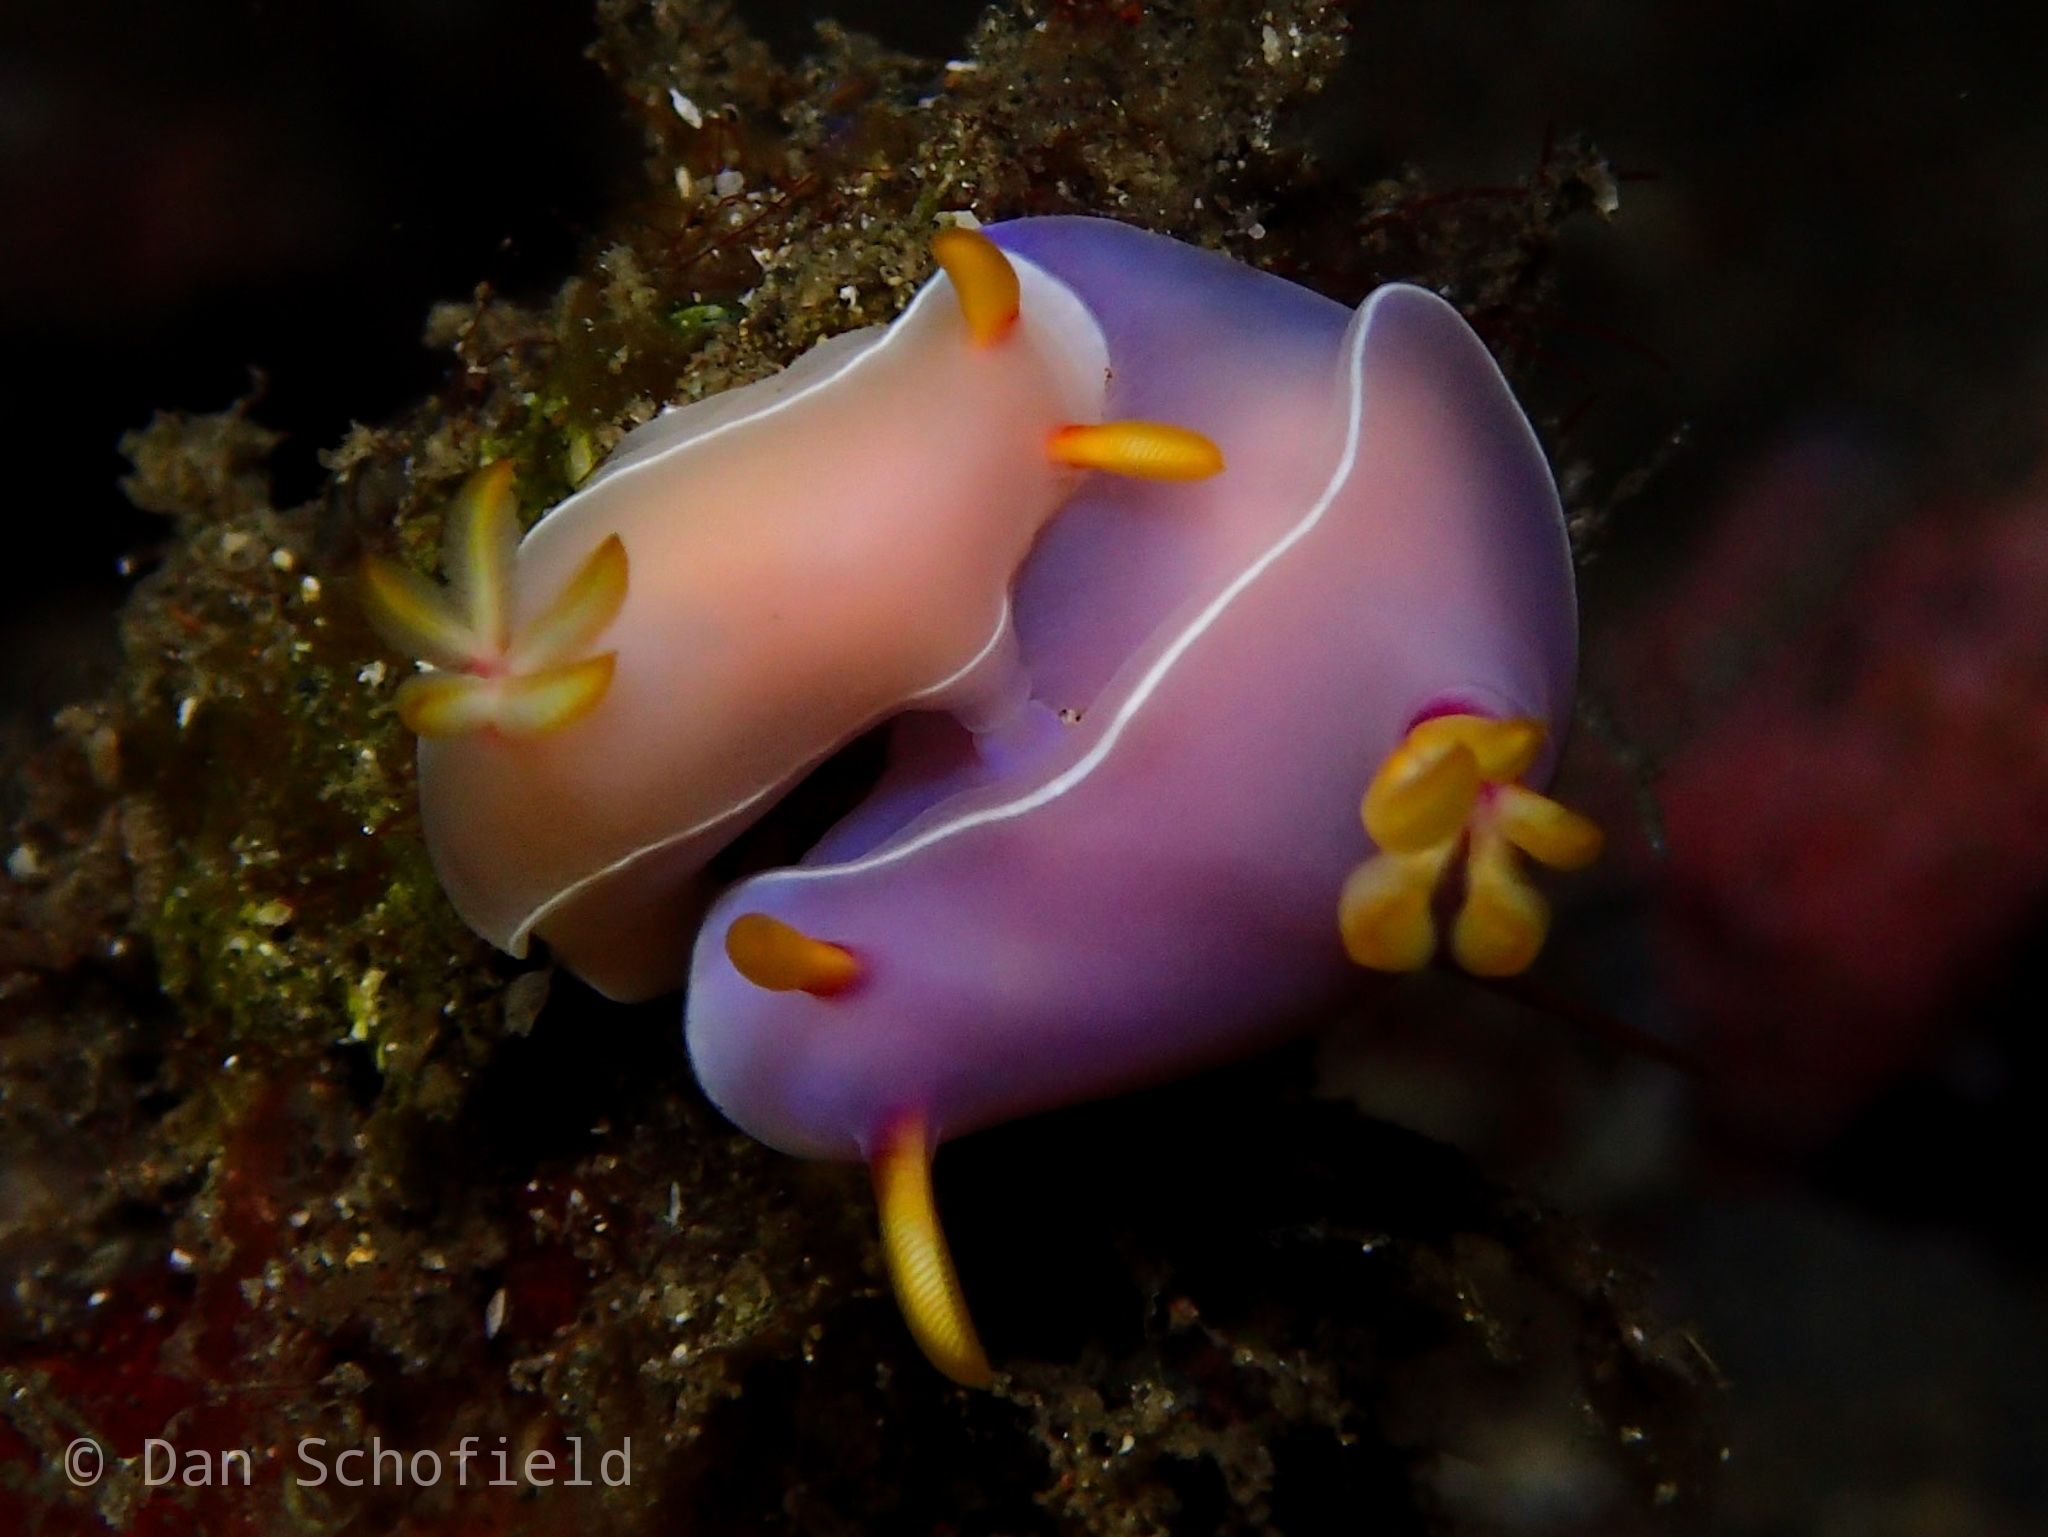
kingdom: Animalia
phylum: Mollusca
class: Gastropoda
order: Nudibranchia
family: Chromodorididae
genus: Hypselodoris
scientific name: Hypselodoris bullockii
